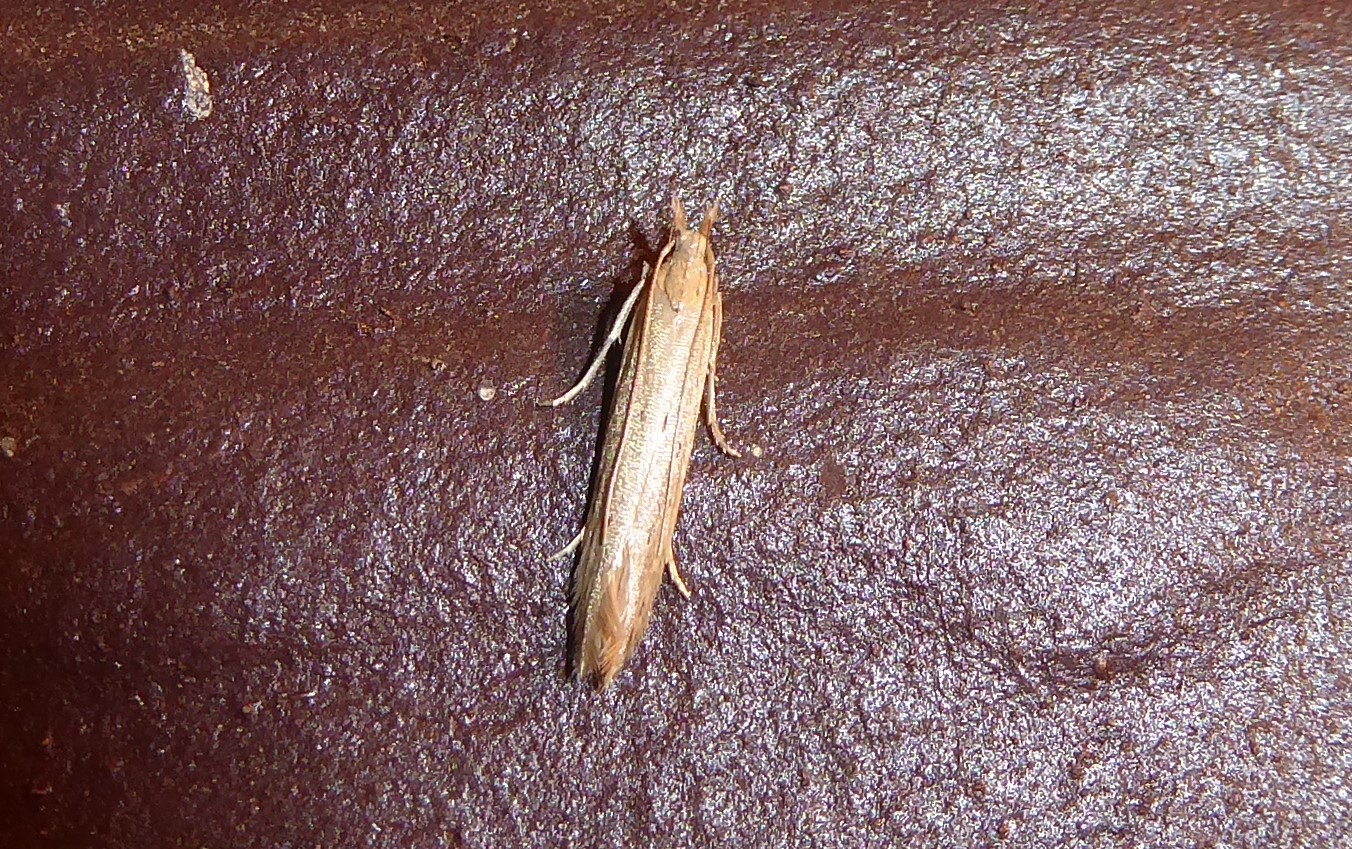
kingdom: Animalia
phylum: Arthropoda
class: Insecta
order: Lepidoptera
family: Gelechiidae
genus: Epiphthora
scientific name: Epiphthora calamogonus
